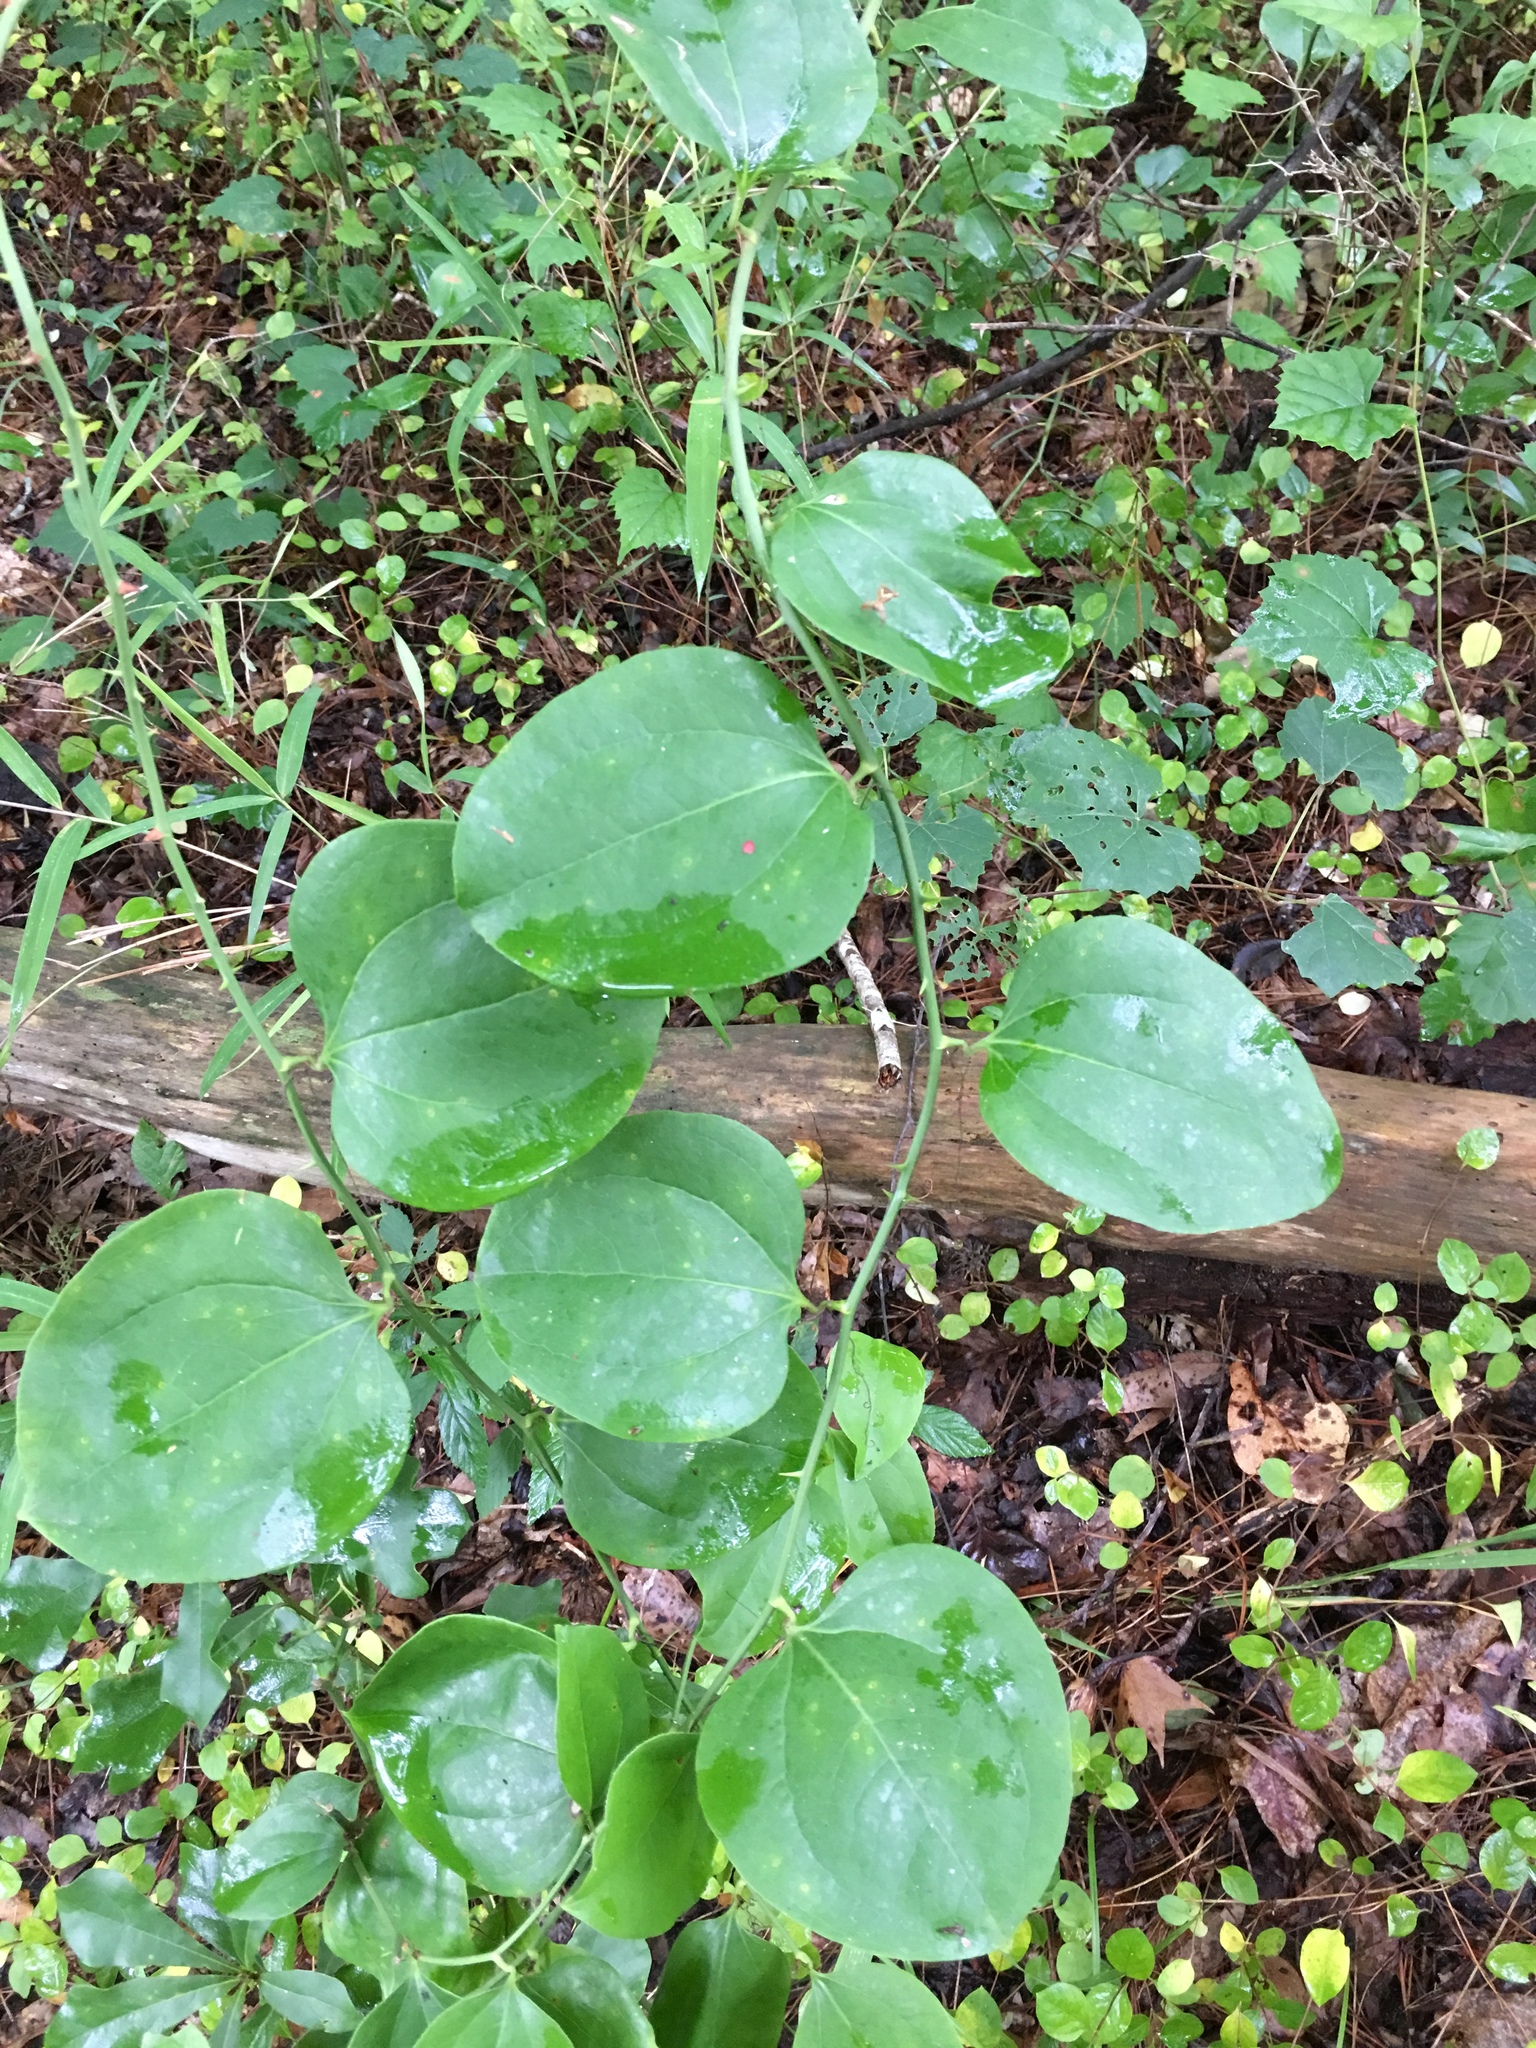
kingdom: Plantae
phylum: Tracheophyta
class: Liliopsida
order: Liliales
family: Smilacaceae
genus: Smilax
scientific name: Smilax rotundifolia
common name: Bullbriar
